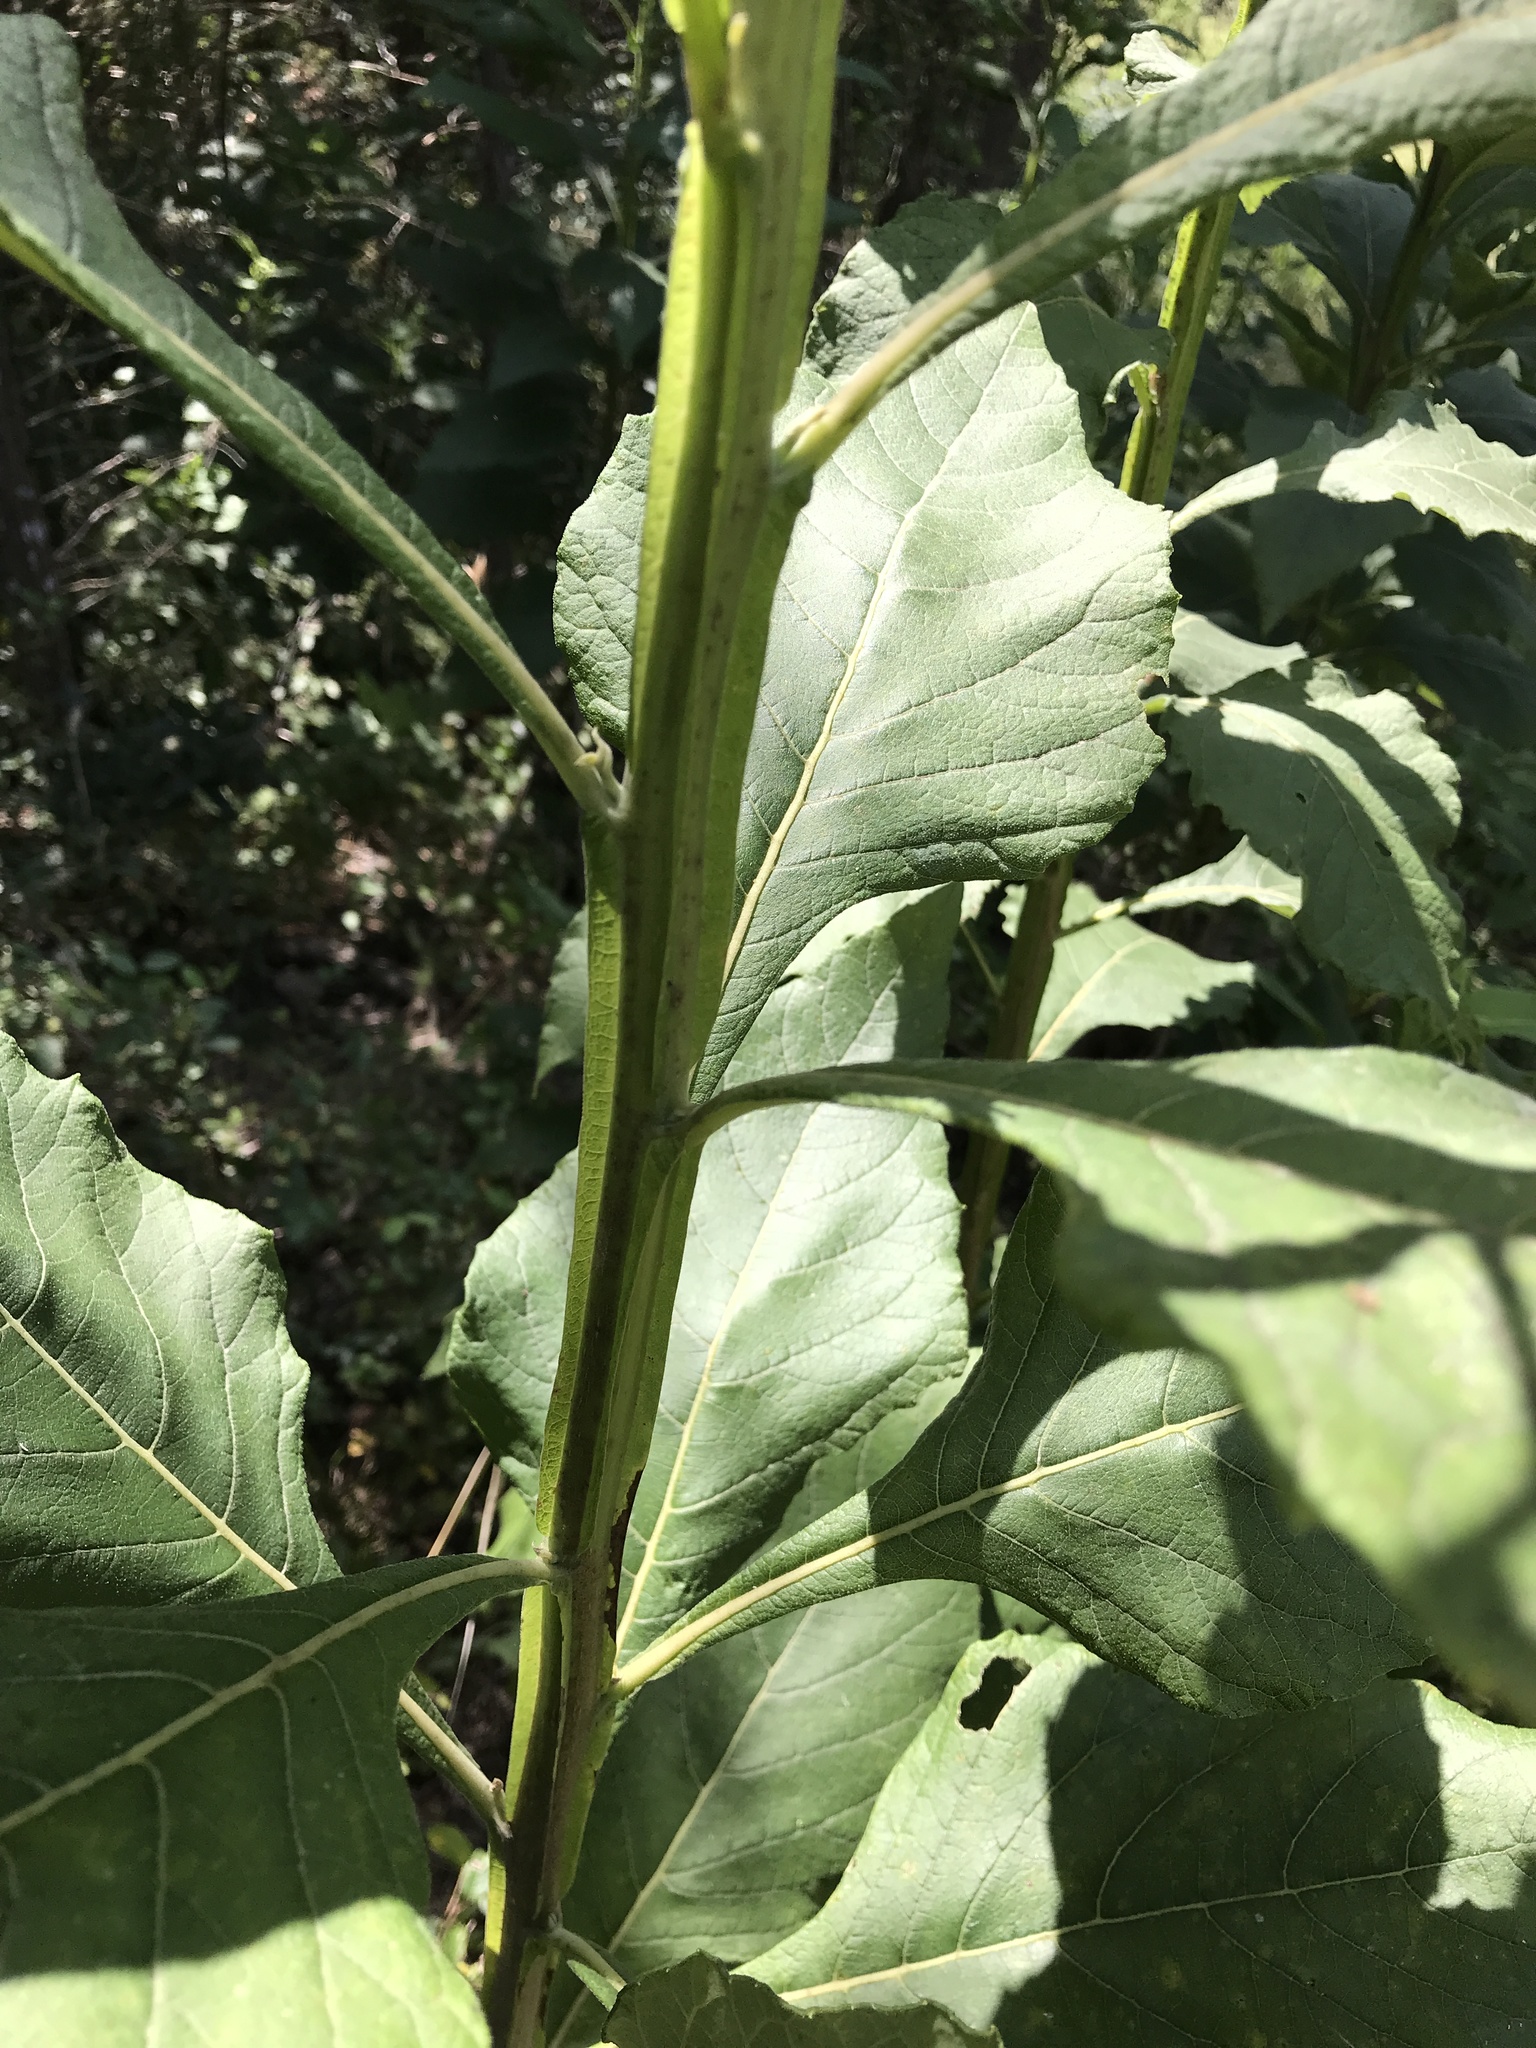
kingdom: Plantae
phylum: Tracheophyta
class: Magnoliopsida
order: Asterales
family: Asteraceae
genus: Verbesina
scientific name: Verbesina virginica
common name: Frostweed
